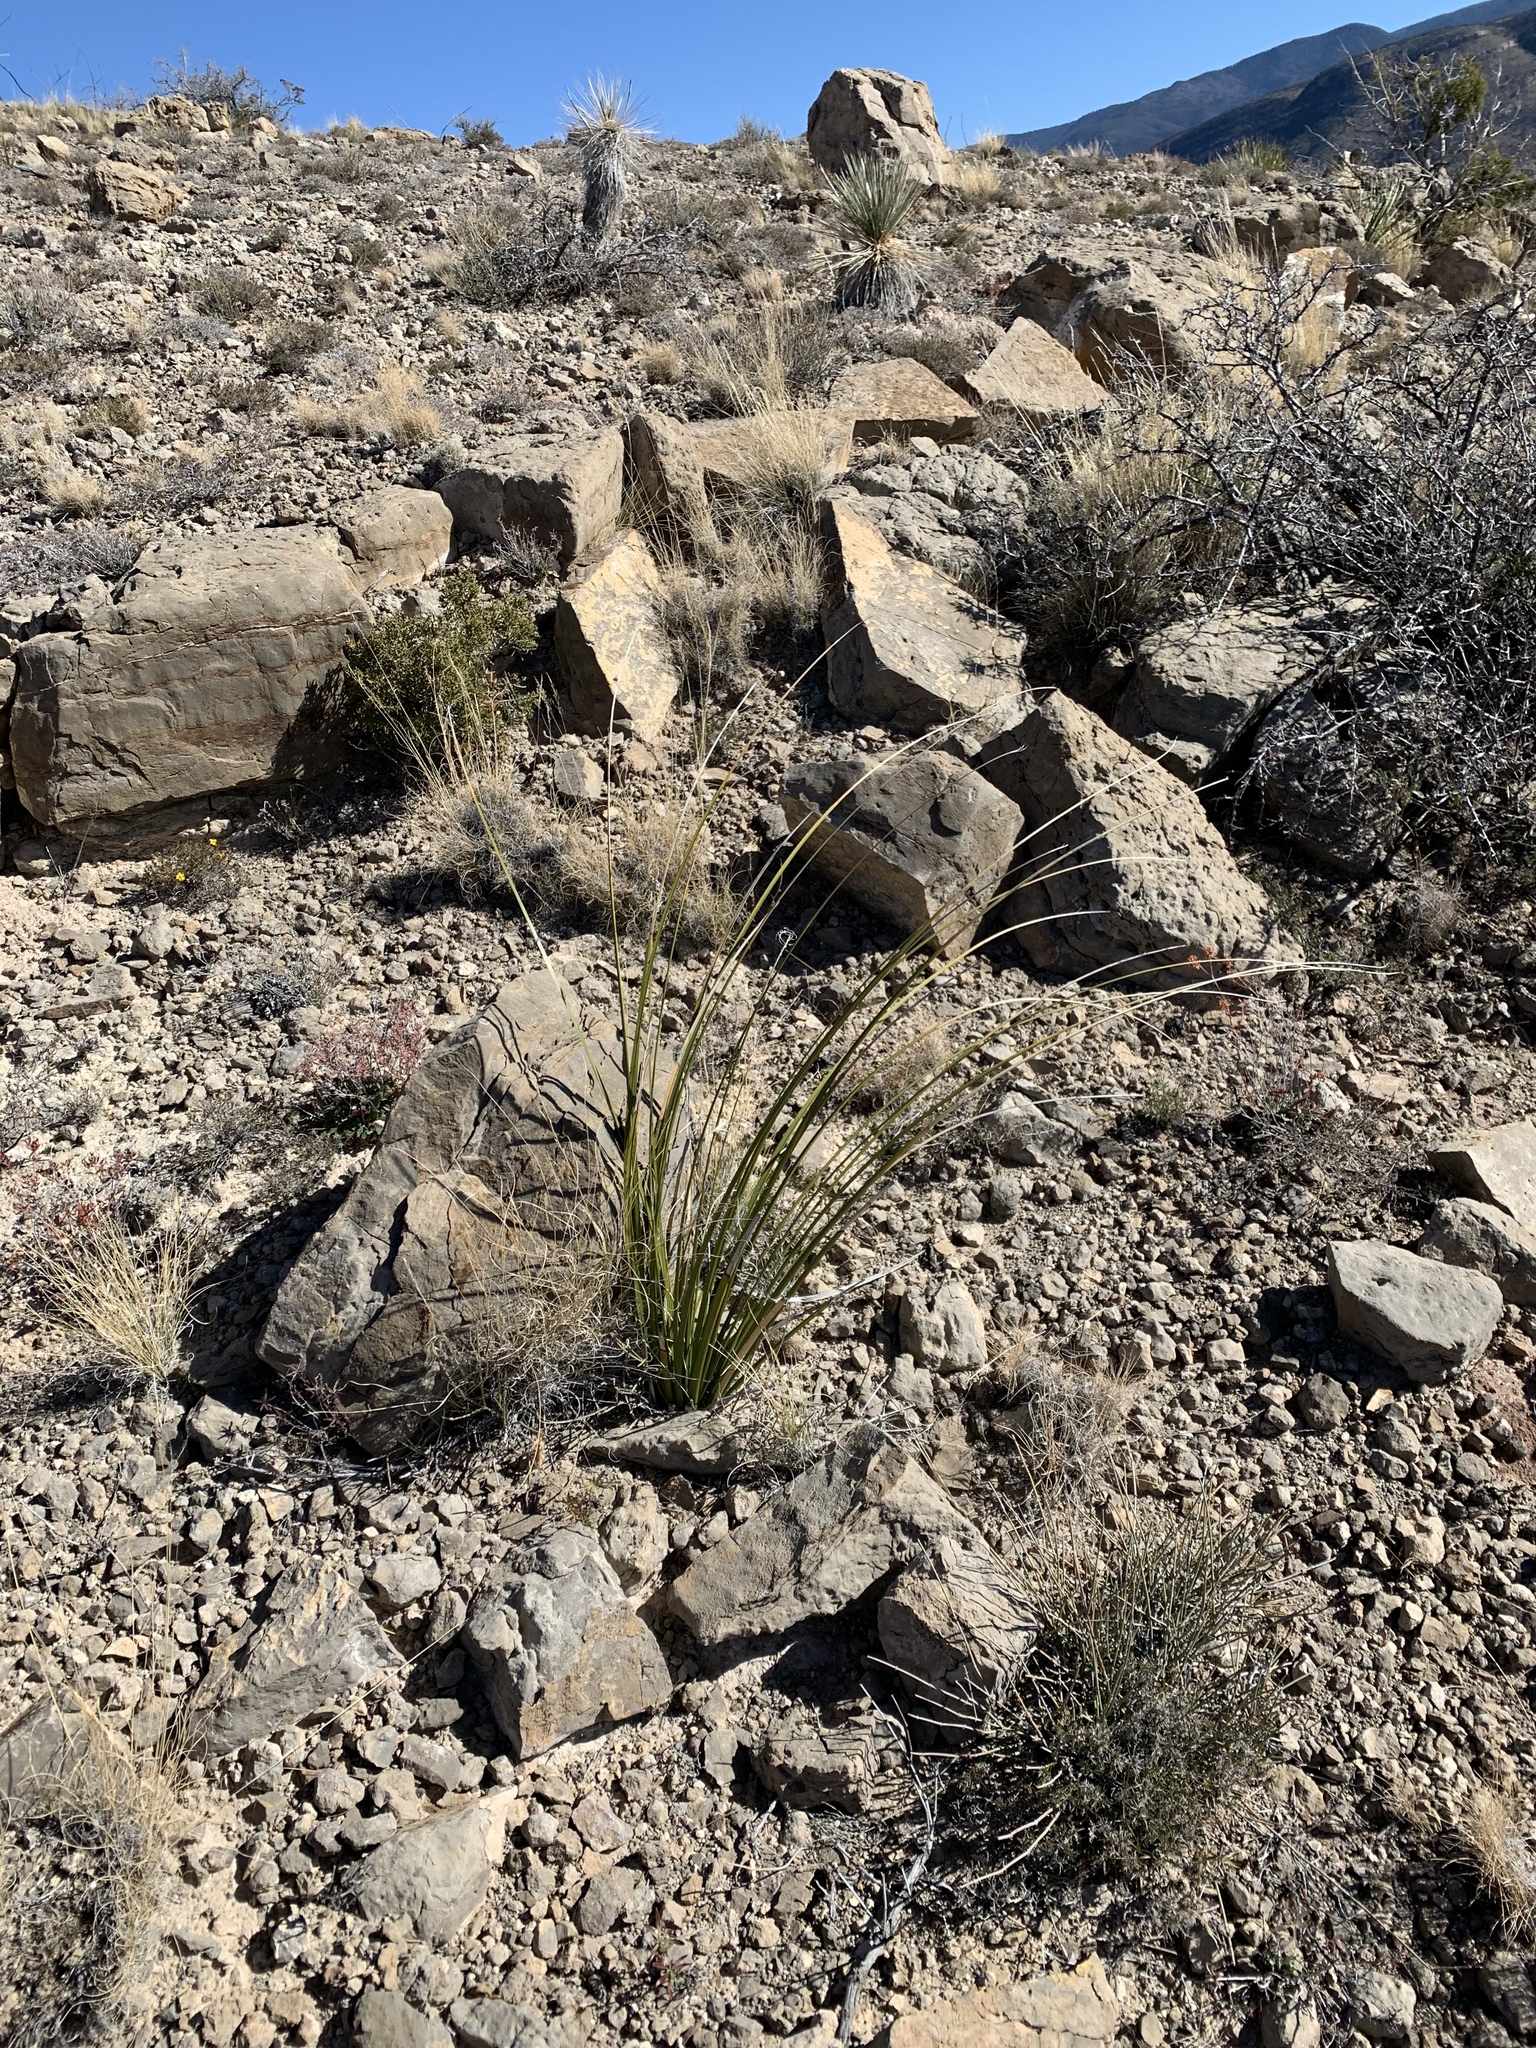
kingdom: Plantae
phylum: Tracheophyta
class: Liliopsida
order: Asparagales
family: Asparagaceae
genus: Nolina
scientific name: Nolina microcarpa
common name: Bear-grass
